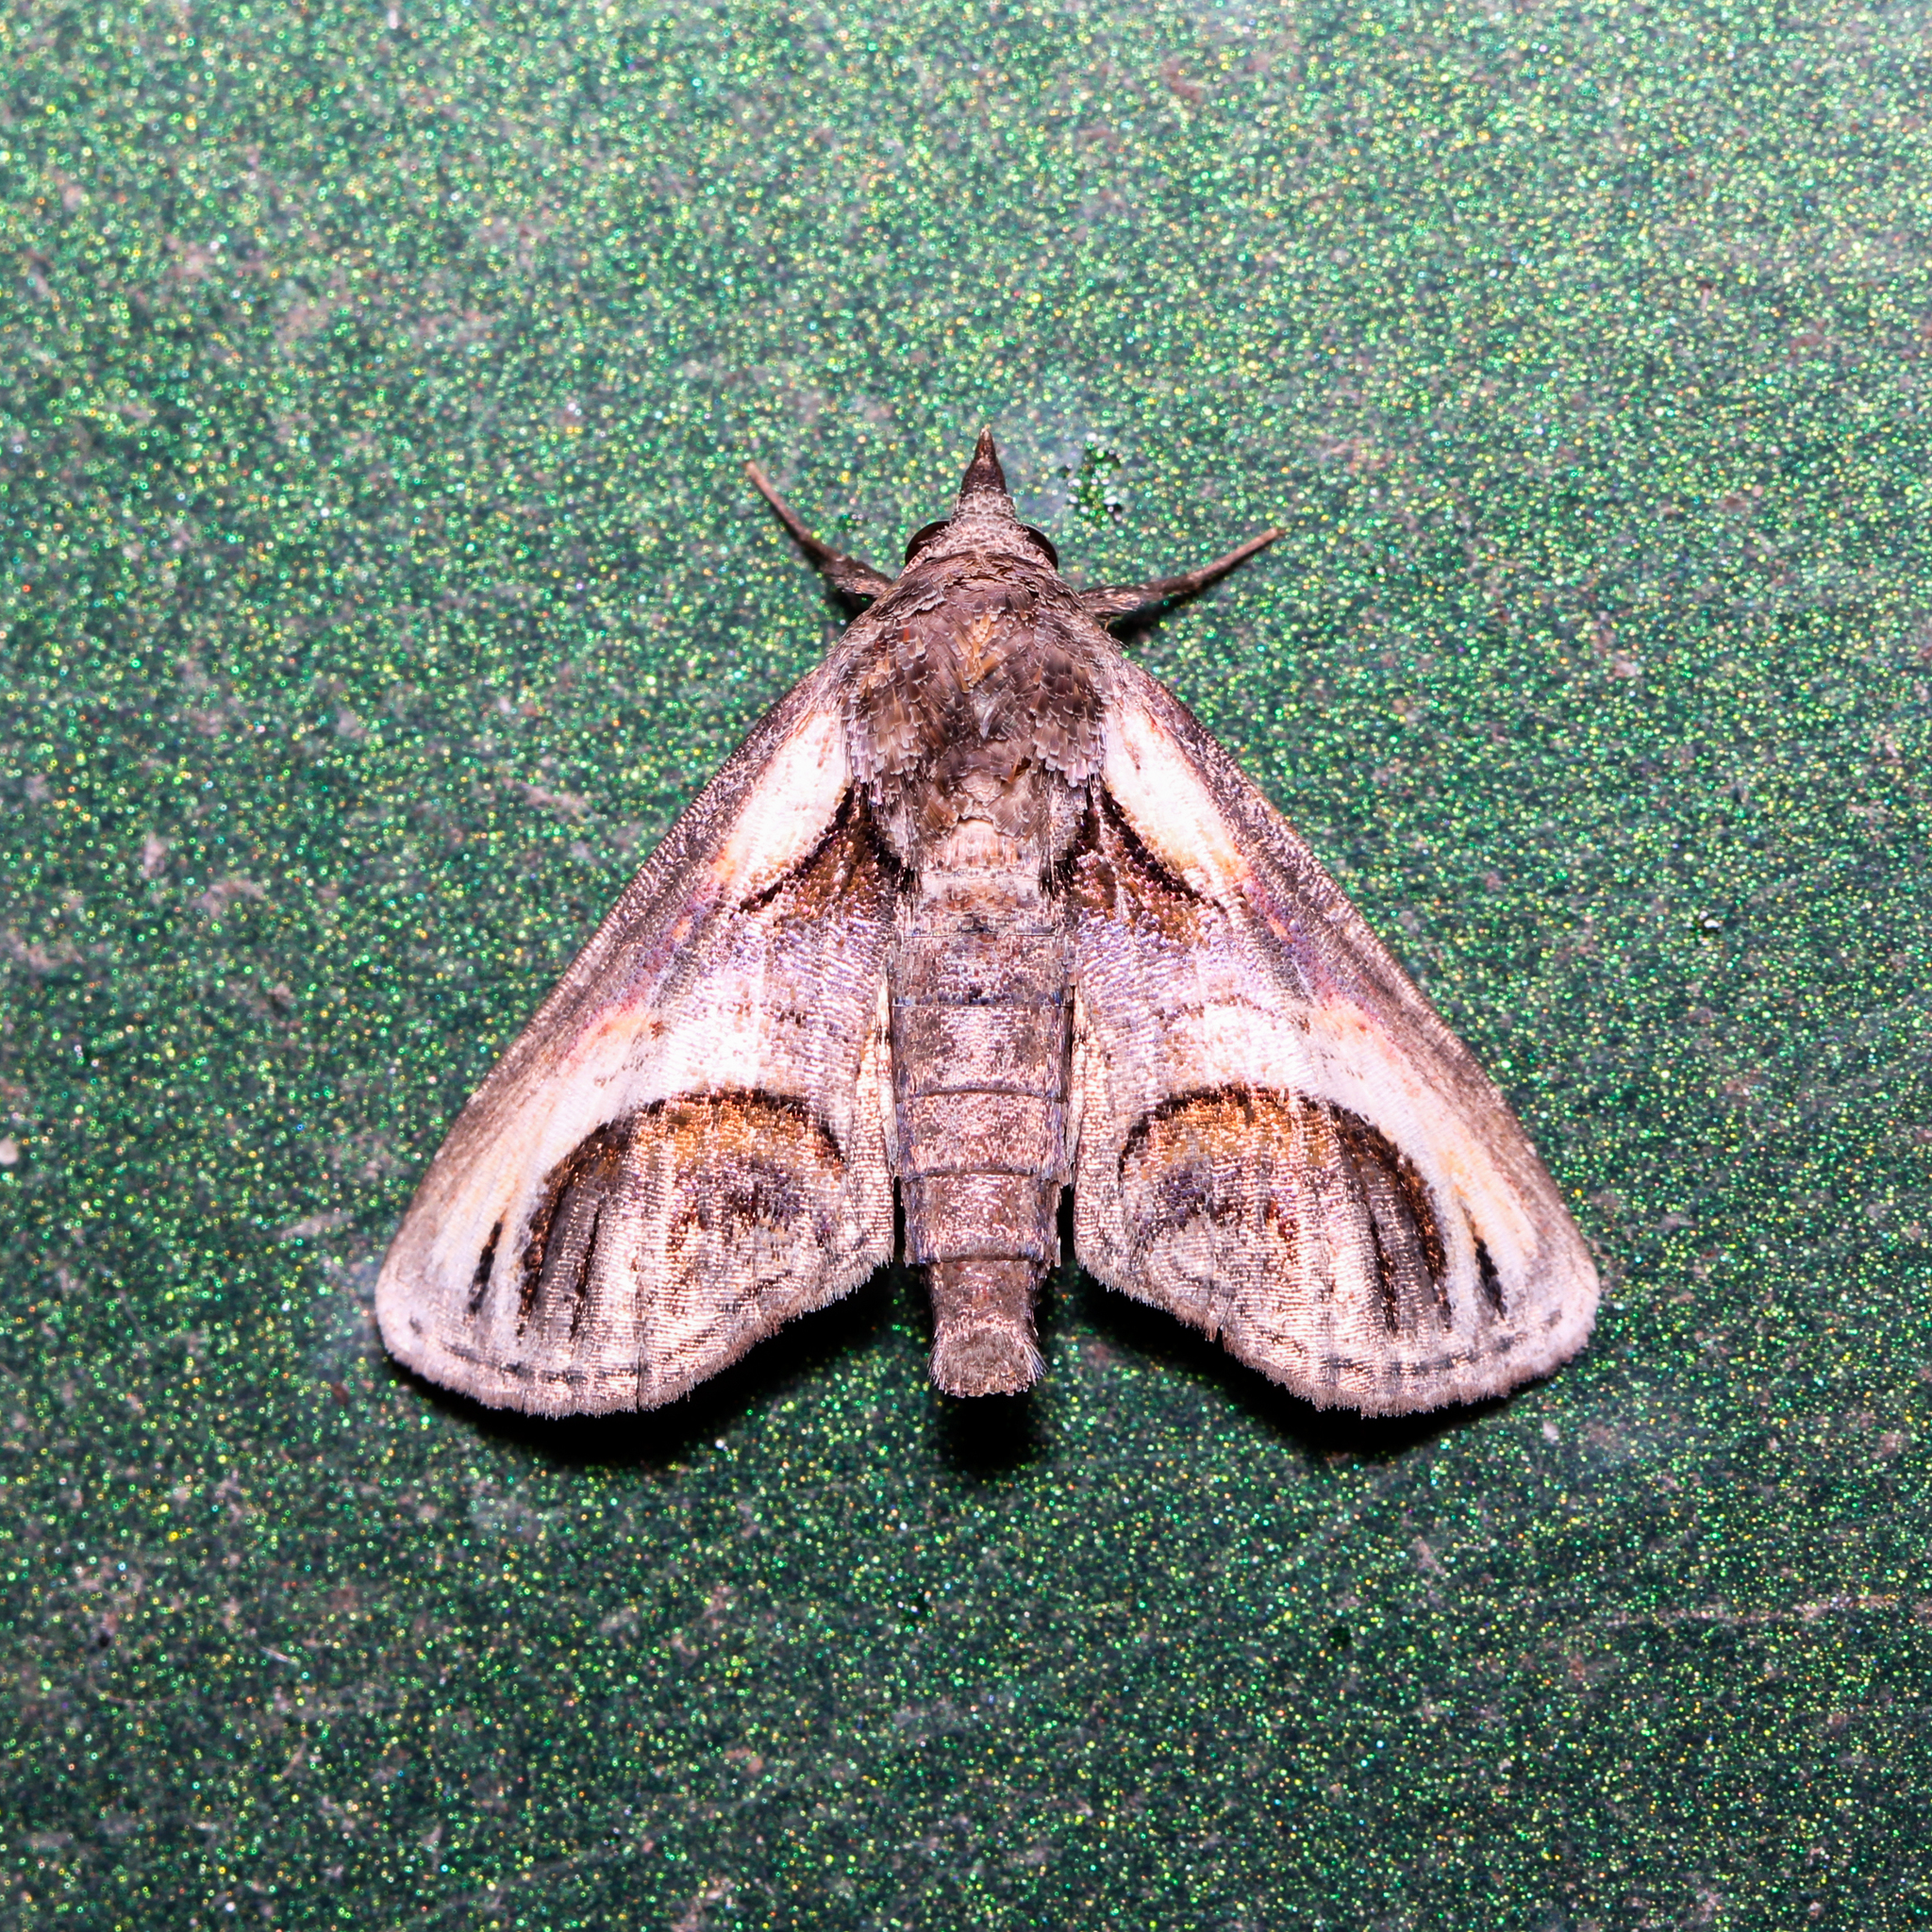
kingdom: Animalia
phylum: Arthropoda
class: Insecta
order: Lepidoptera
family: Euteliidae
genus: Paectes
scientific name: Paectes oculatrix
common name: Eyed paectes moth
